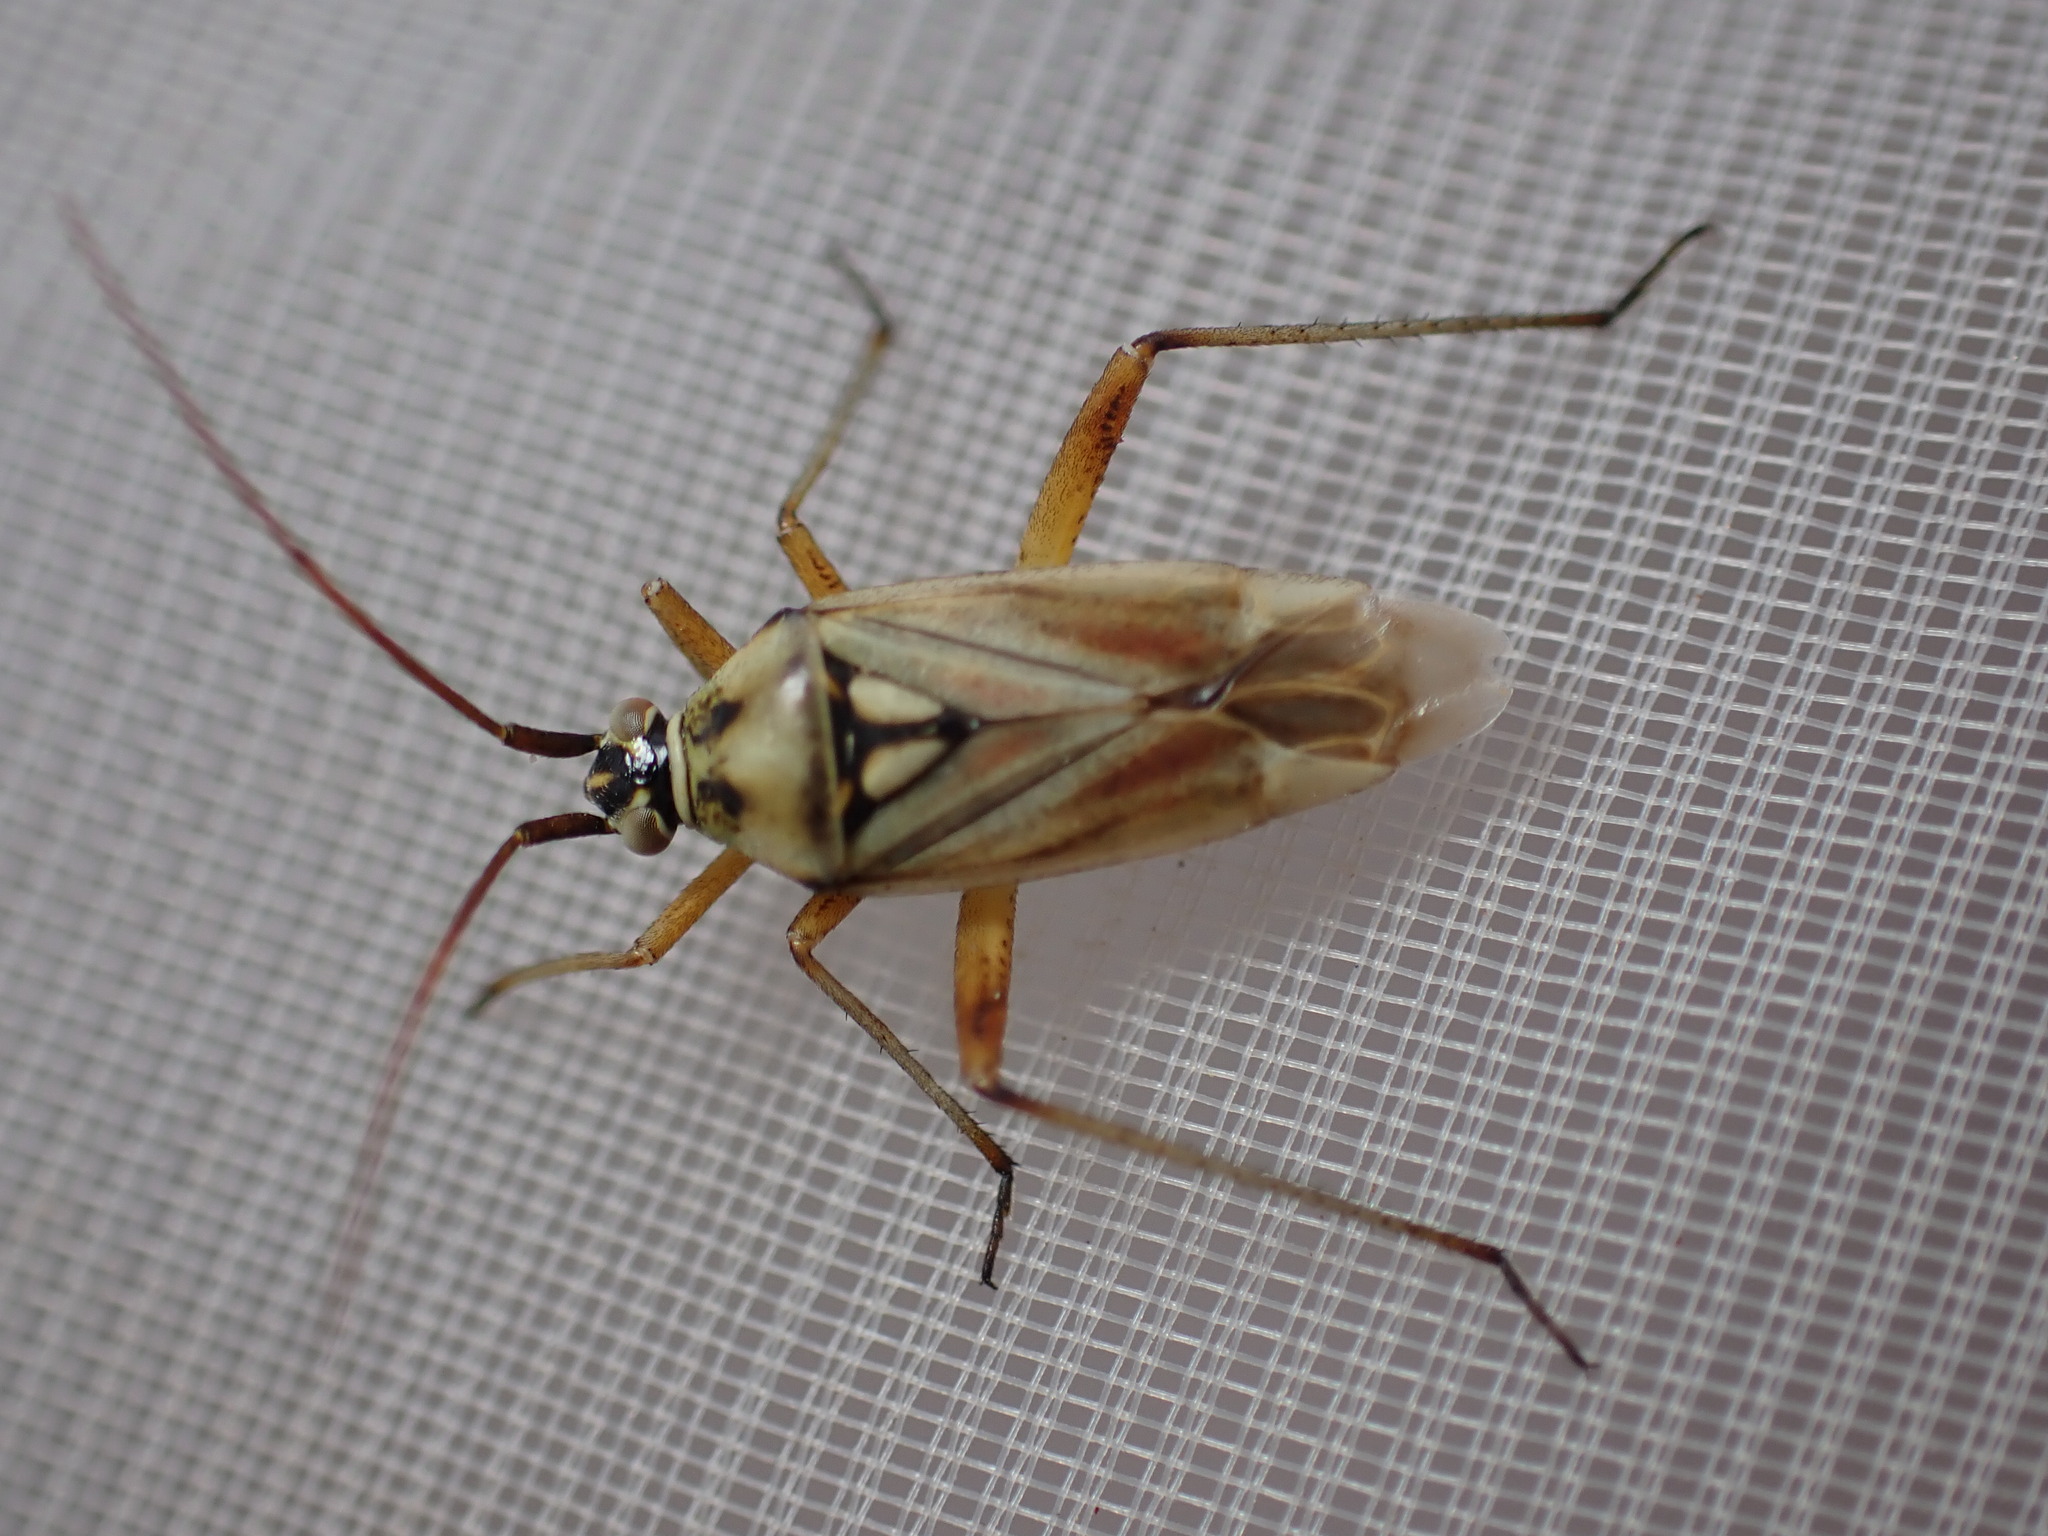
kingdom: Animalia
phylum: Arthropoda
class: Insecta
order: Hemiptera
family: Miridae
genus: Calocoris
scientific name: Calocoris roseomaculatus
